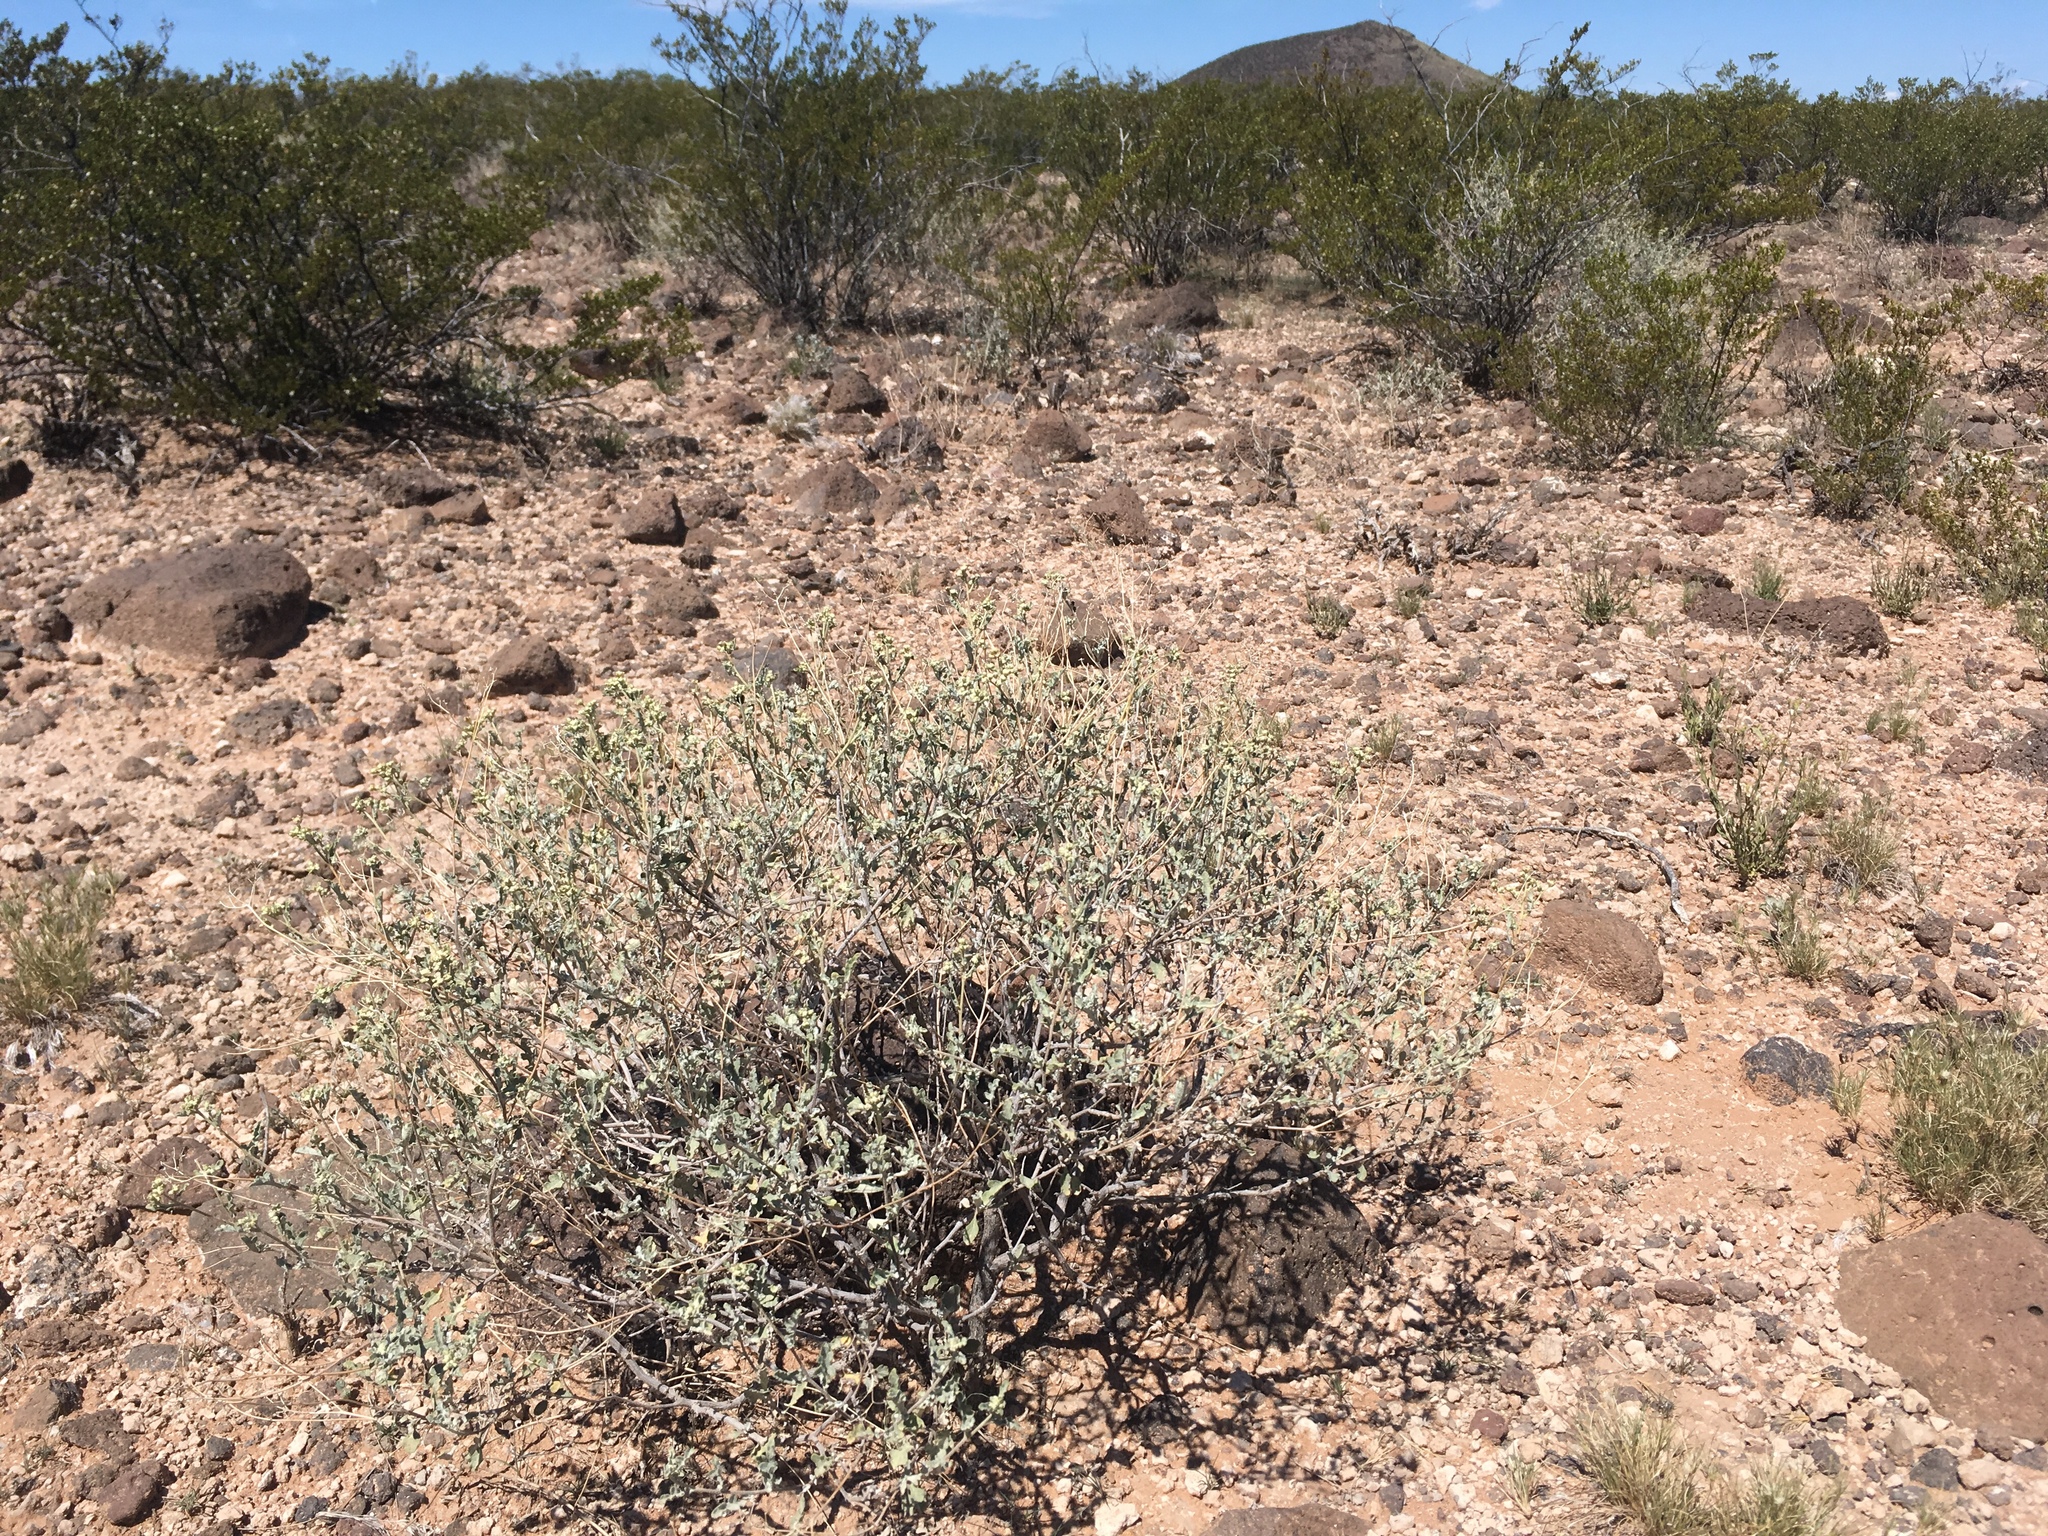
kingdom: Plantae
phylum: Tracheophyta
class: Magnoliopsida
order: Asterales
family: Asteraceae
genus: Parthenium
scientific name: Parthenium incanum
